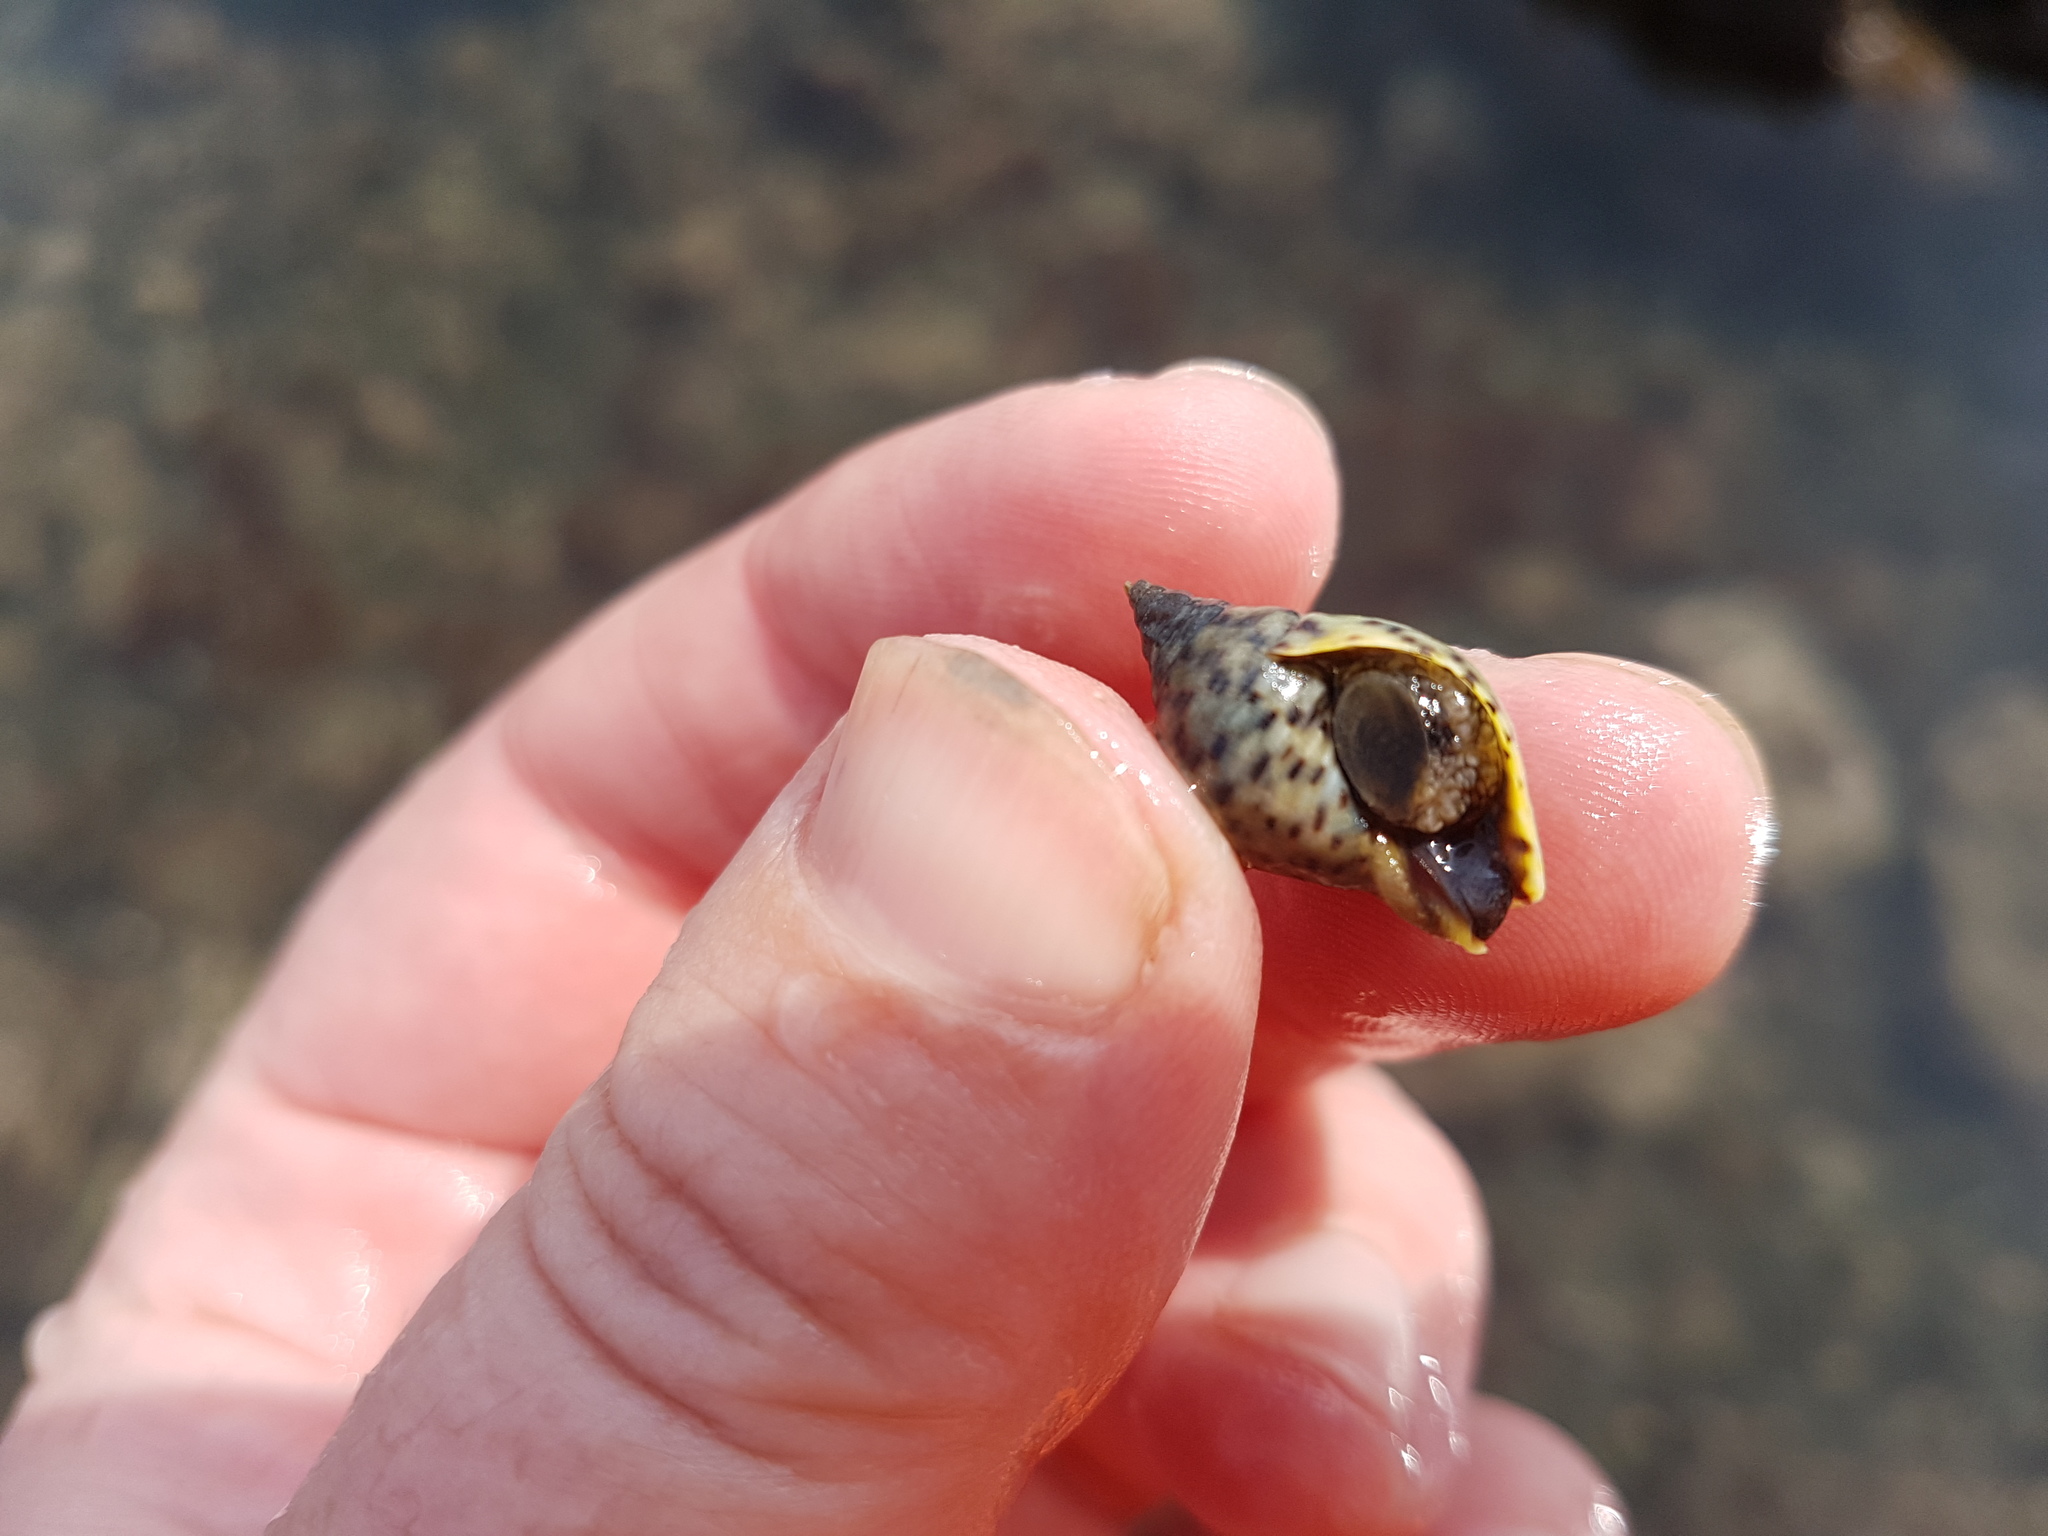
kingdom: Animalia
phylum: Mollusca
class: Gastropoda
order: Neogastropoda
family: Cominellidae
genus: Cominella
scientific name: Cominella maculosa
